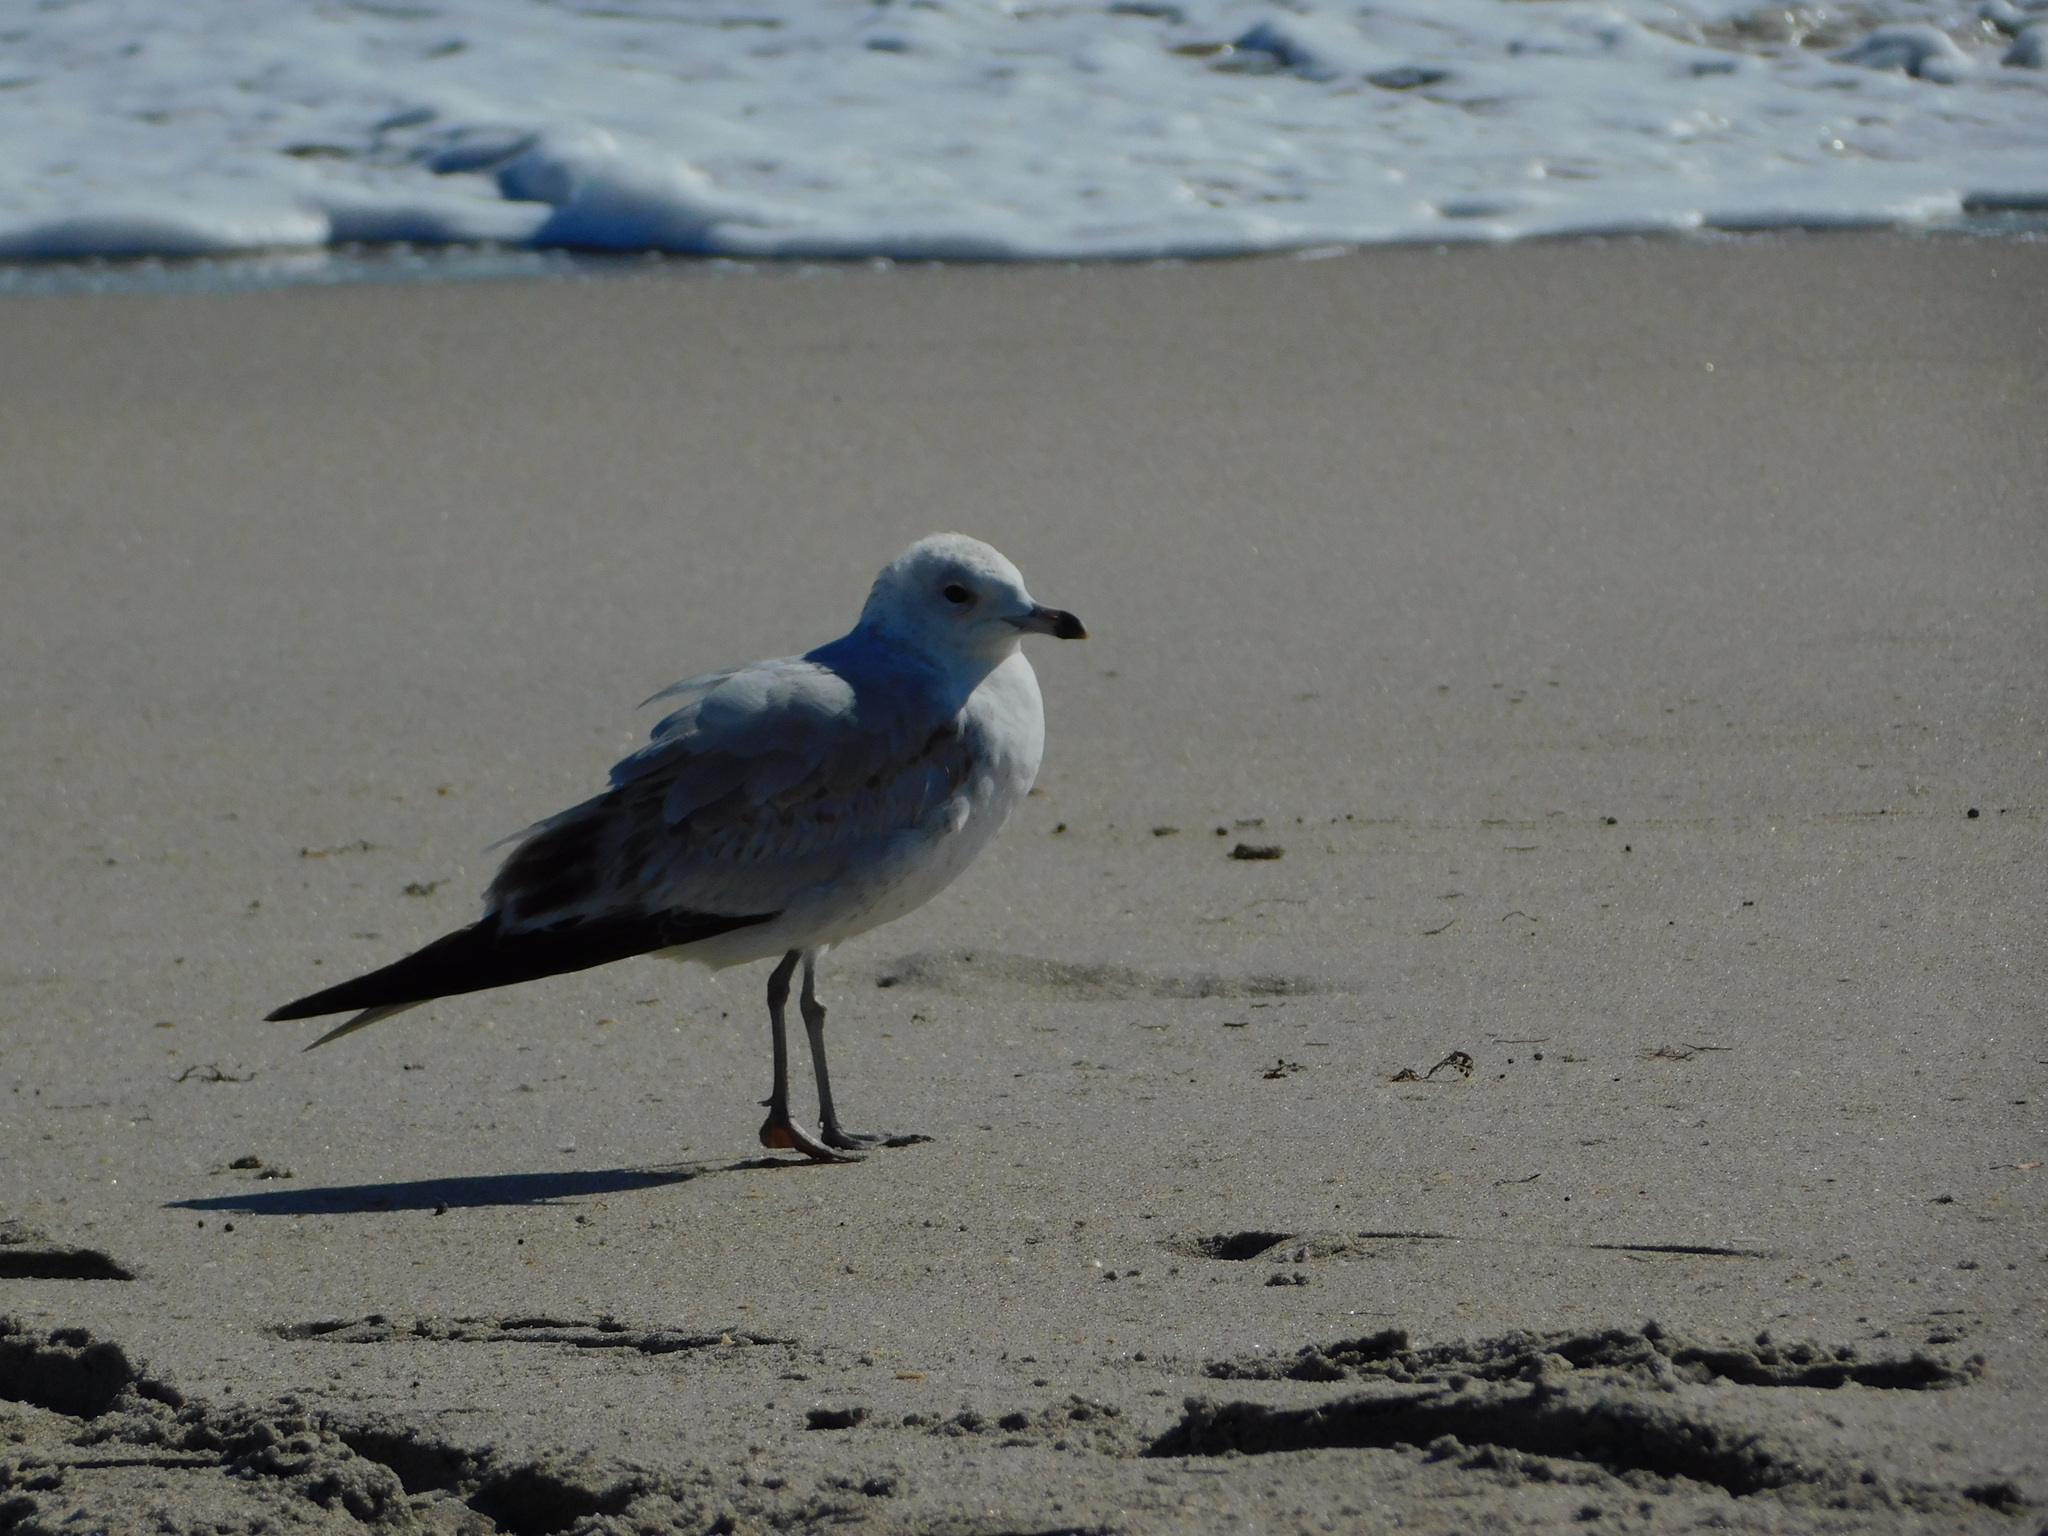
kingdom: Animalia
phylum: Chordata
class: Aves
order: Charadriiformes
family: Laridae
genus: Larus
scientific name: Larus delawarensis
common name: Ring-billed gull
